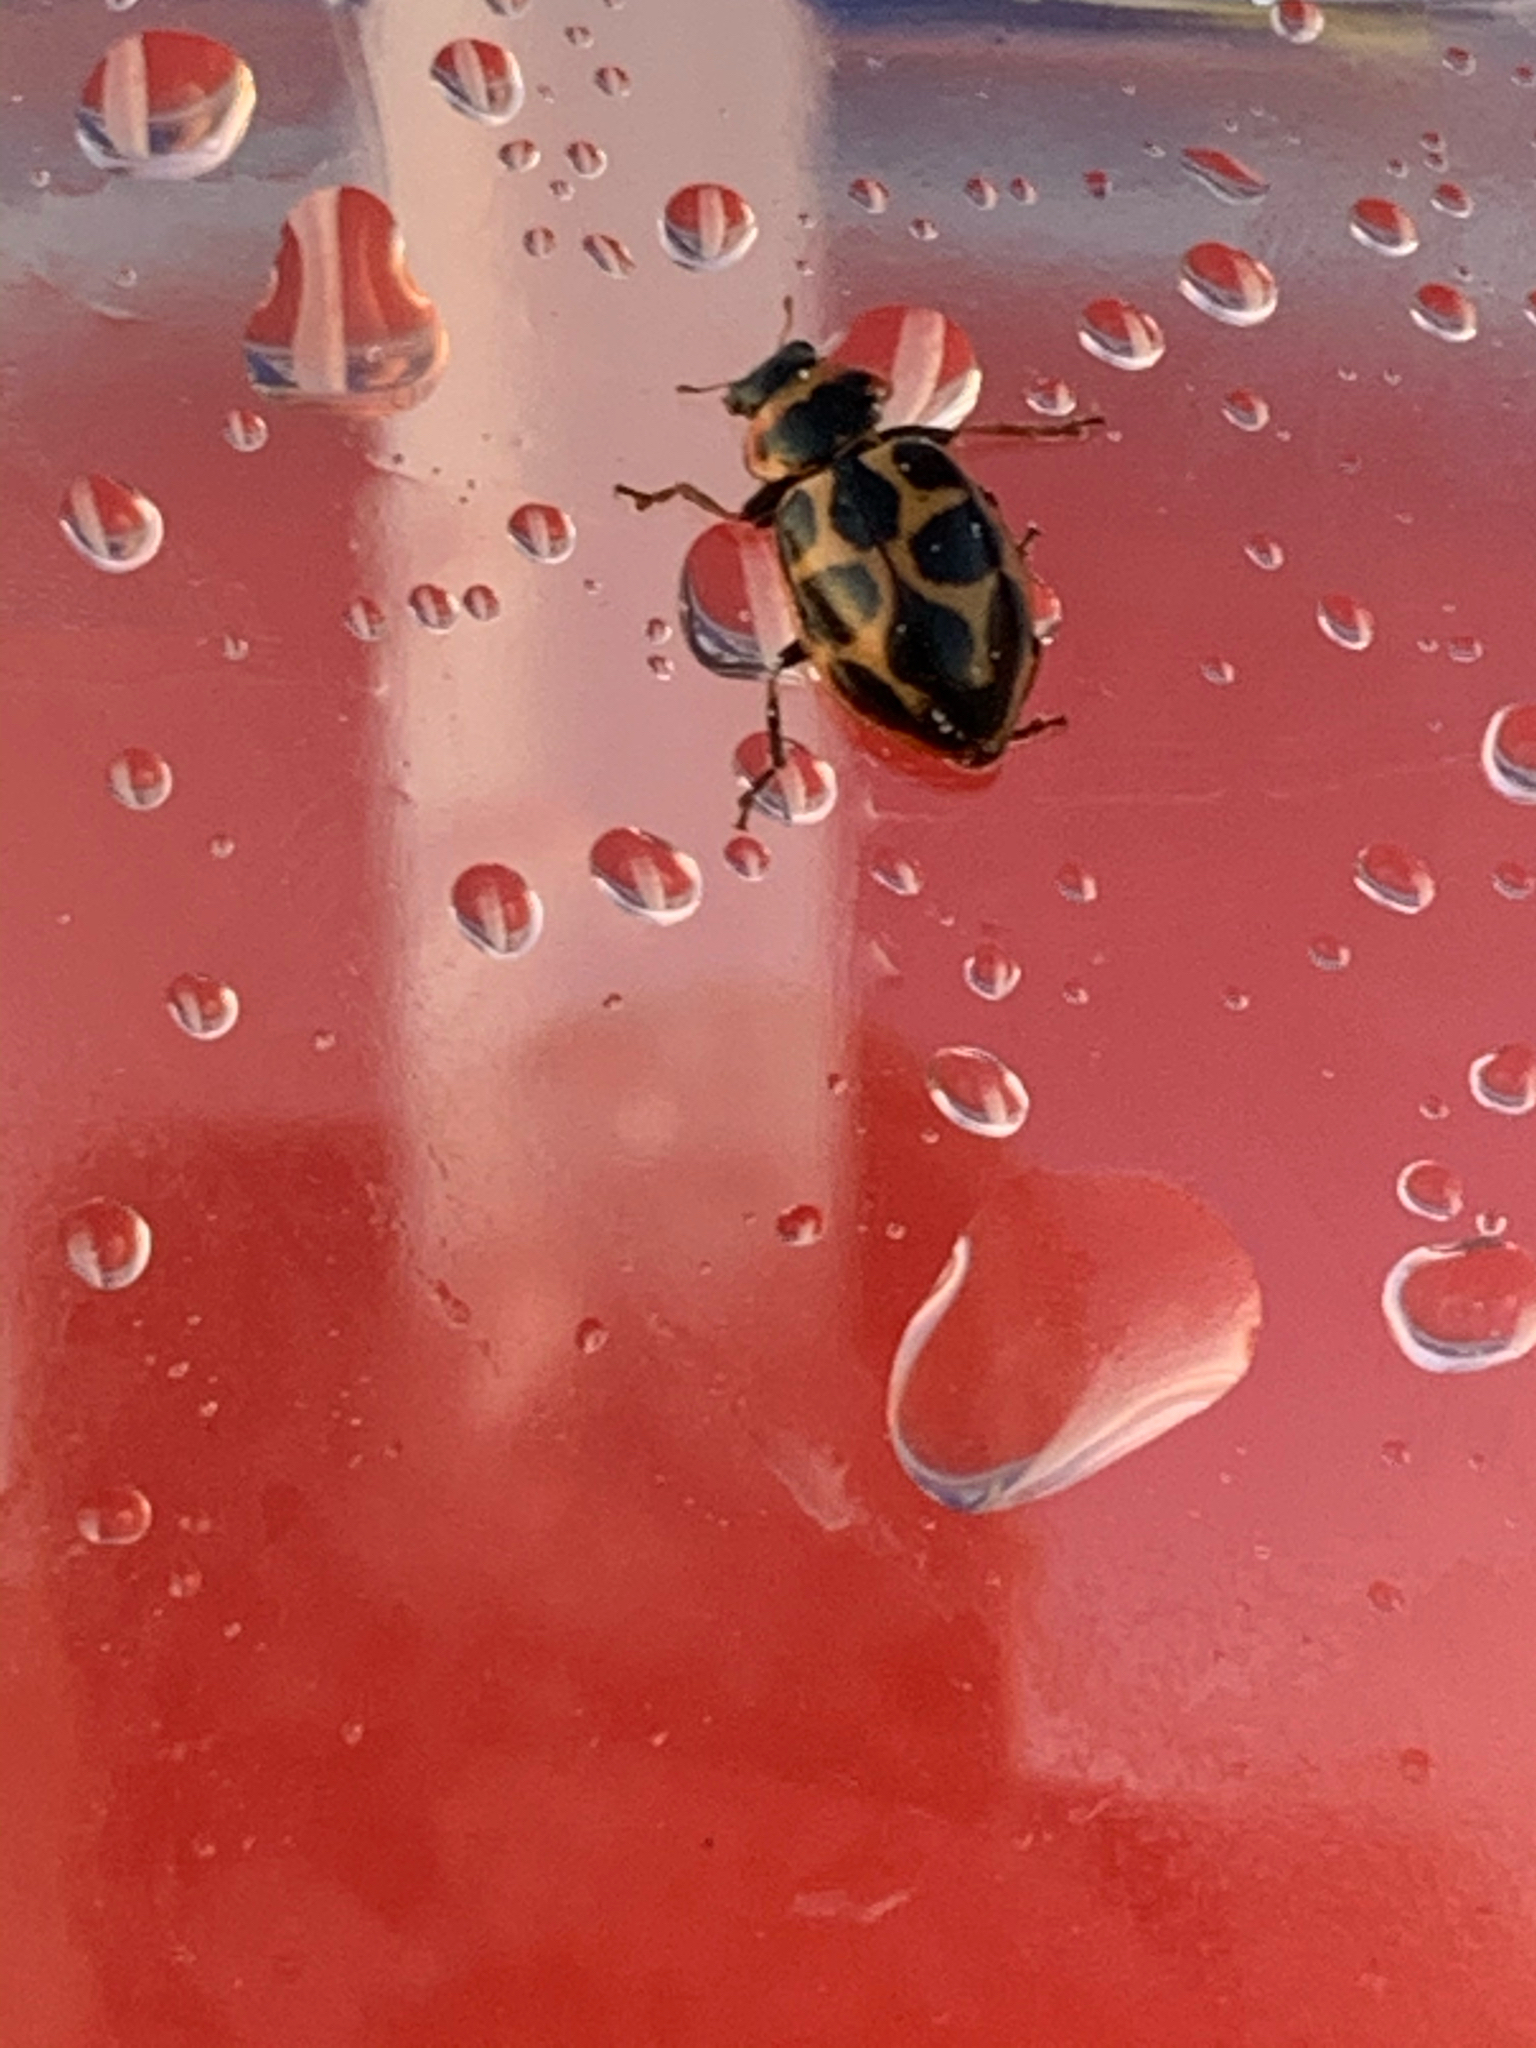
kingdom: Animalia
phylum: Arthropoda
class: Insecta
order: Coleoptera
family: Coccinellidae
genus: Naemia
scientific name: Naemia seriata
